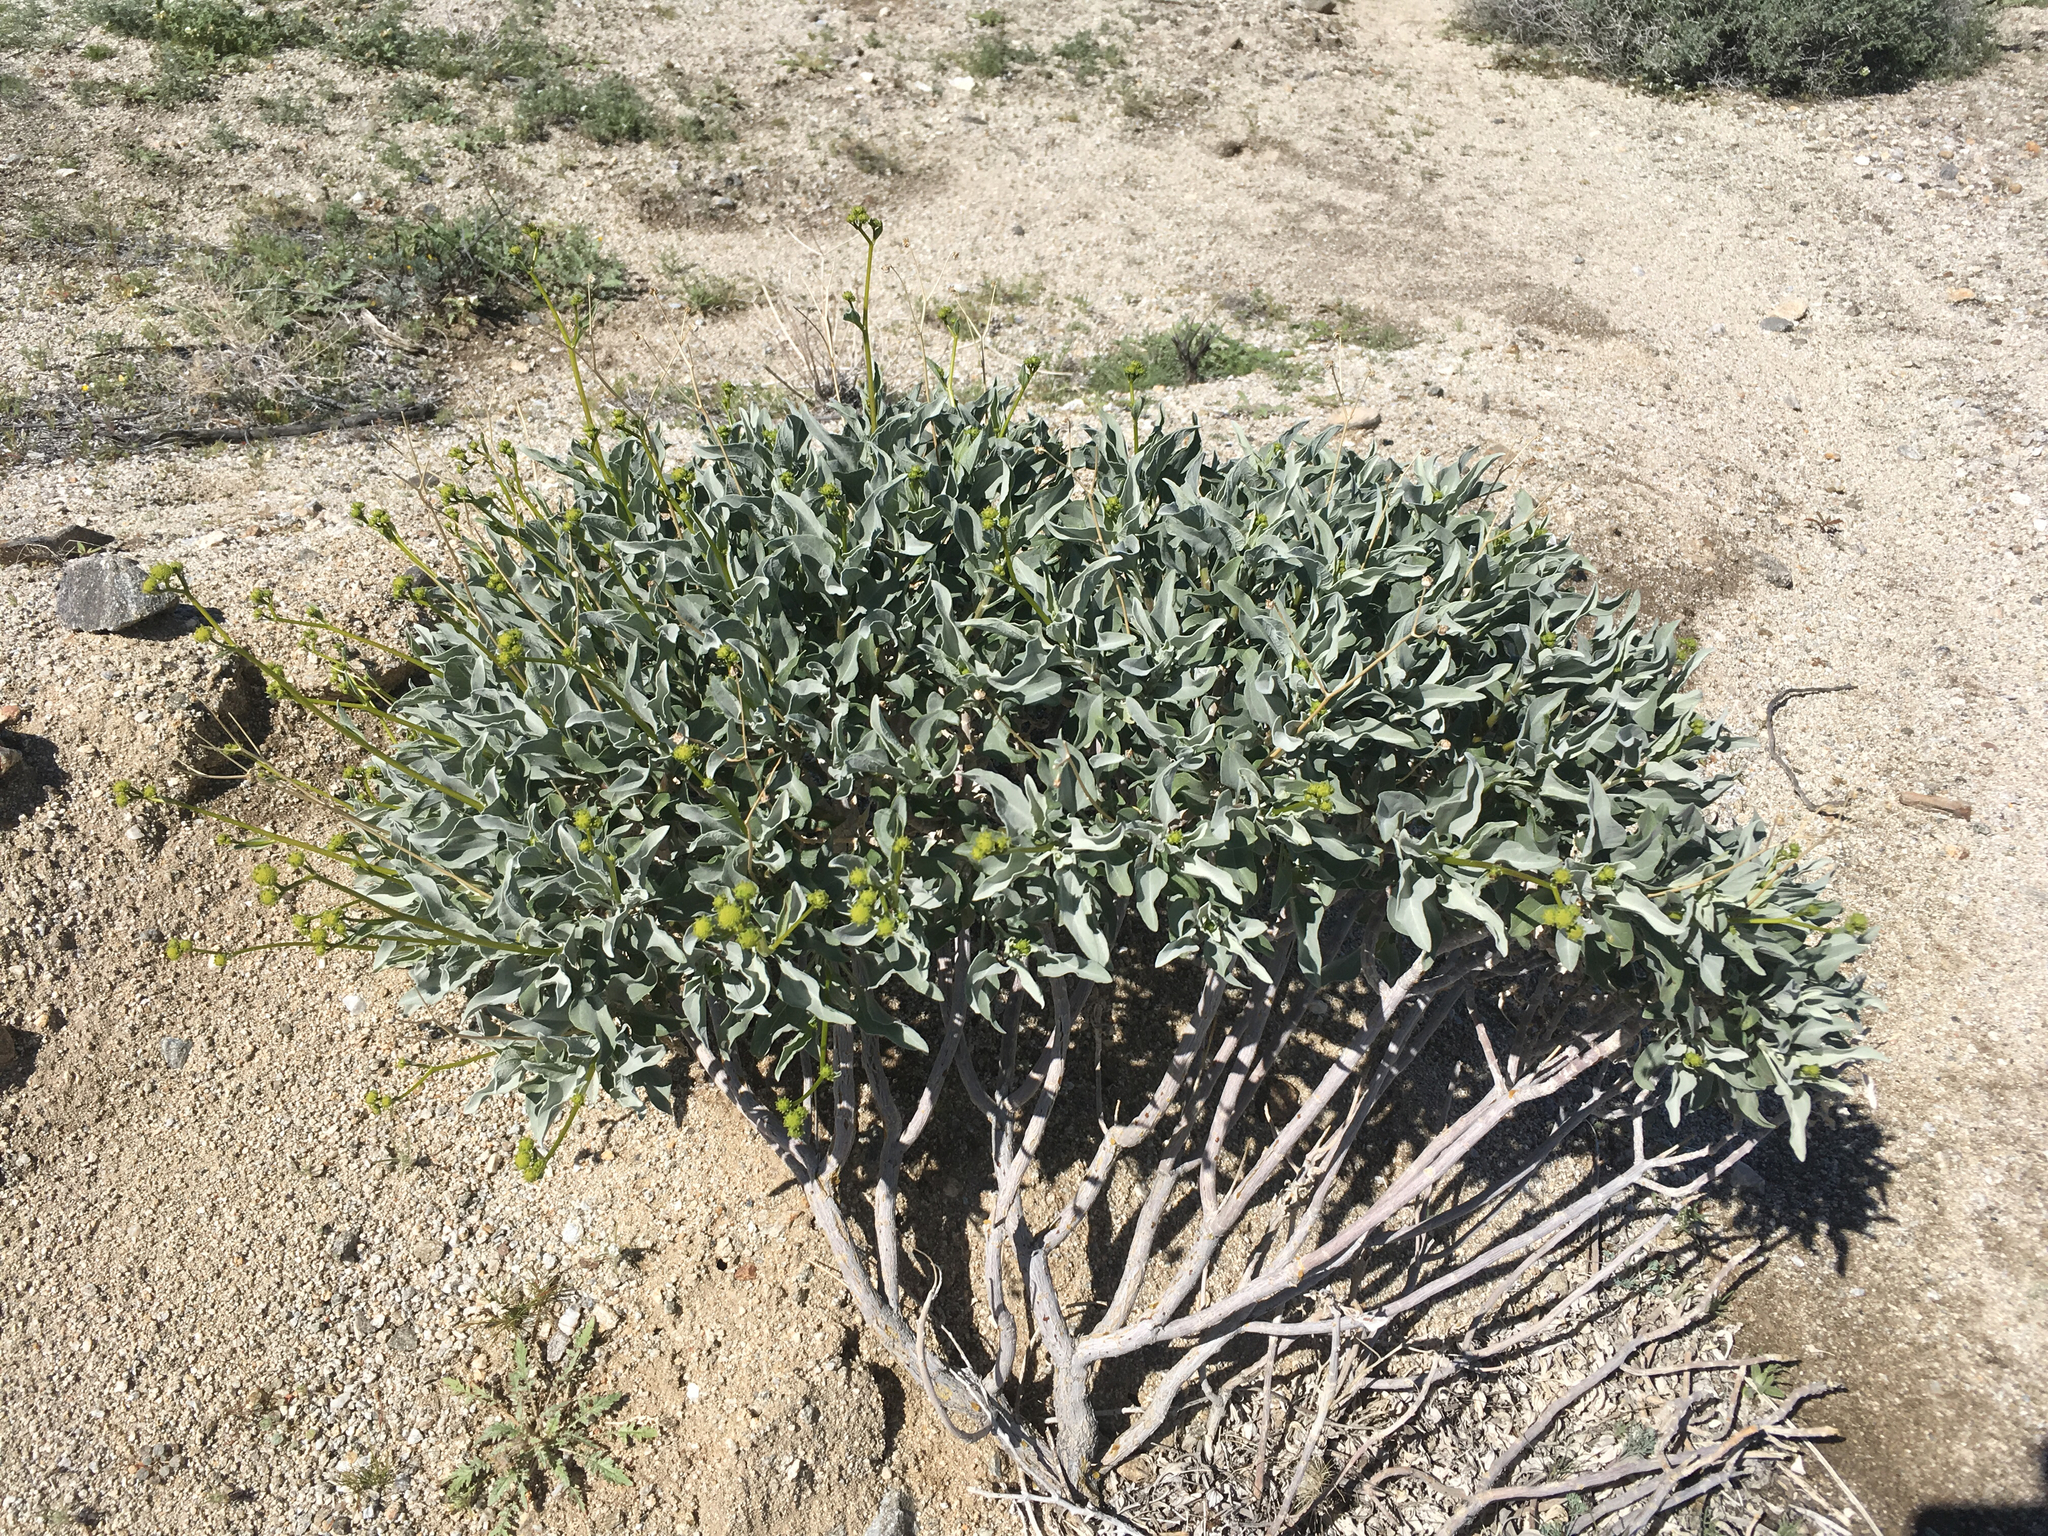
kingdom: Plantae
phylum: Tracheophyta
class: Magnoliopsida
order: Asterales
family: Asteraceae
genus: Encelia
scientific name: Encelia farinosa
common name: Brittlebush
